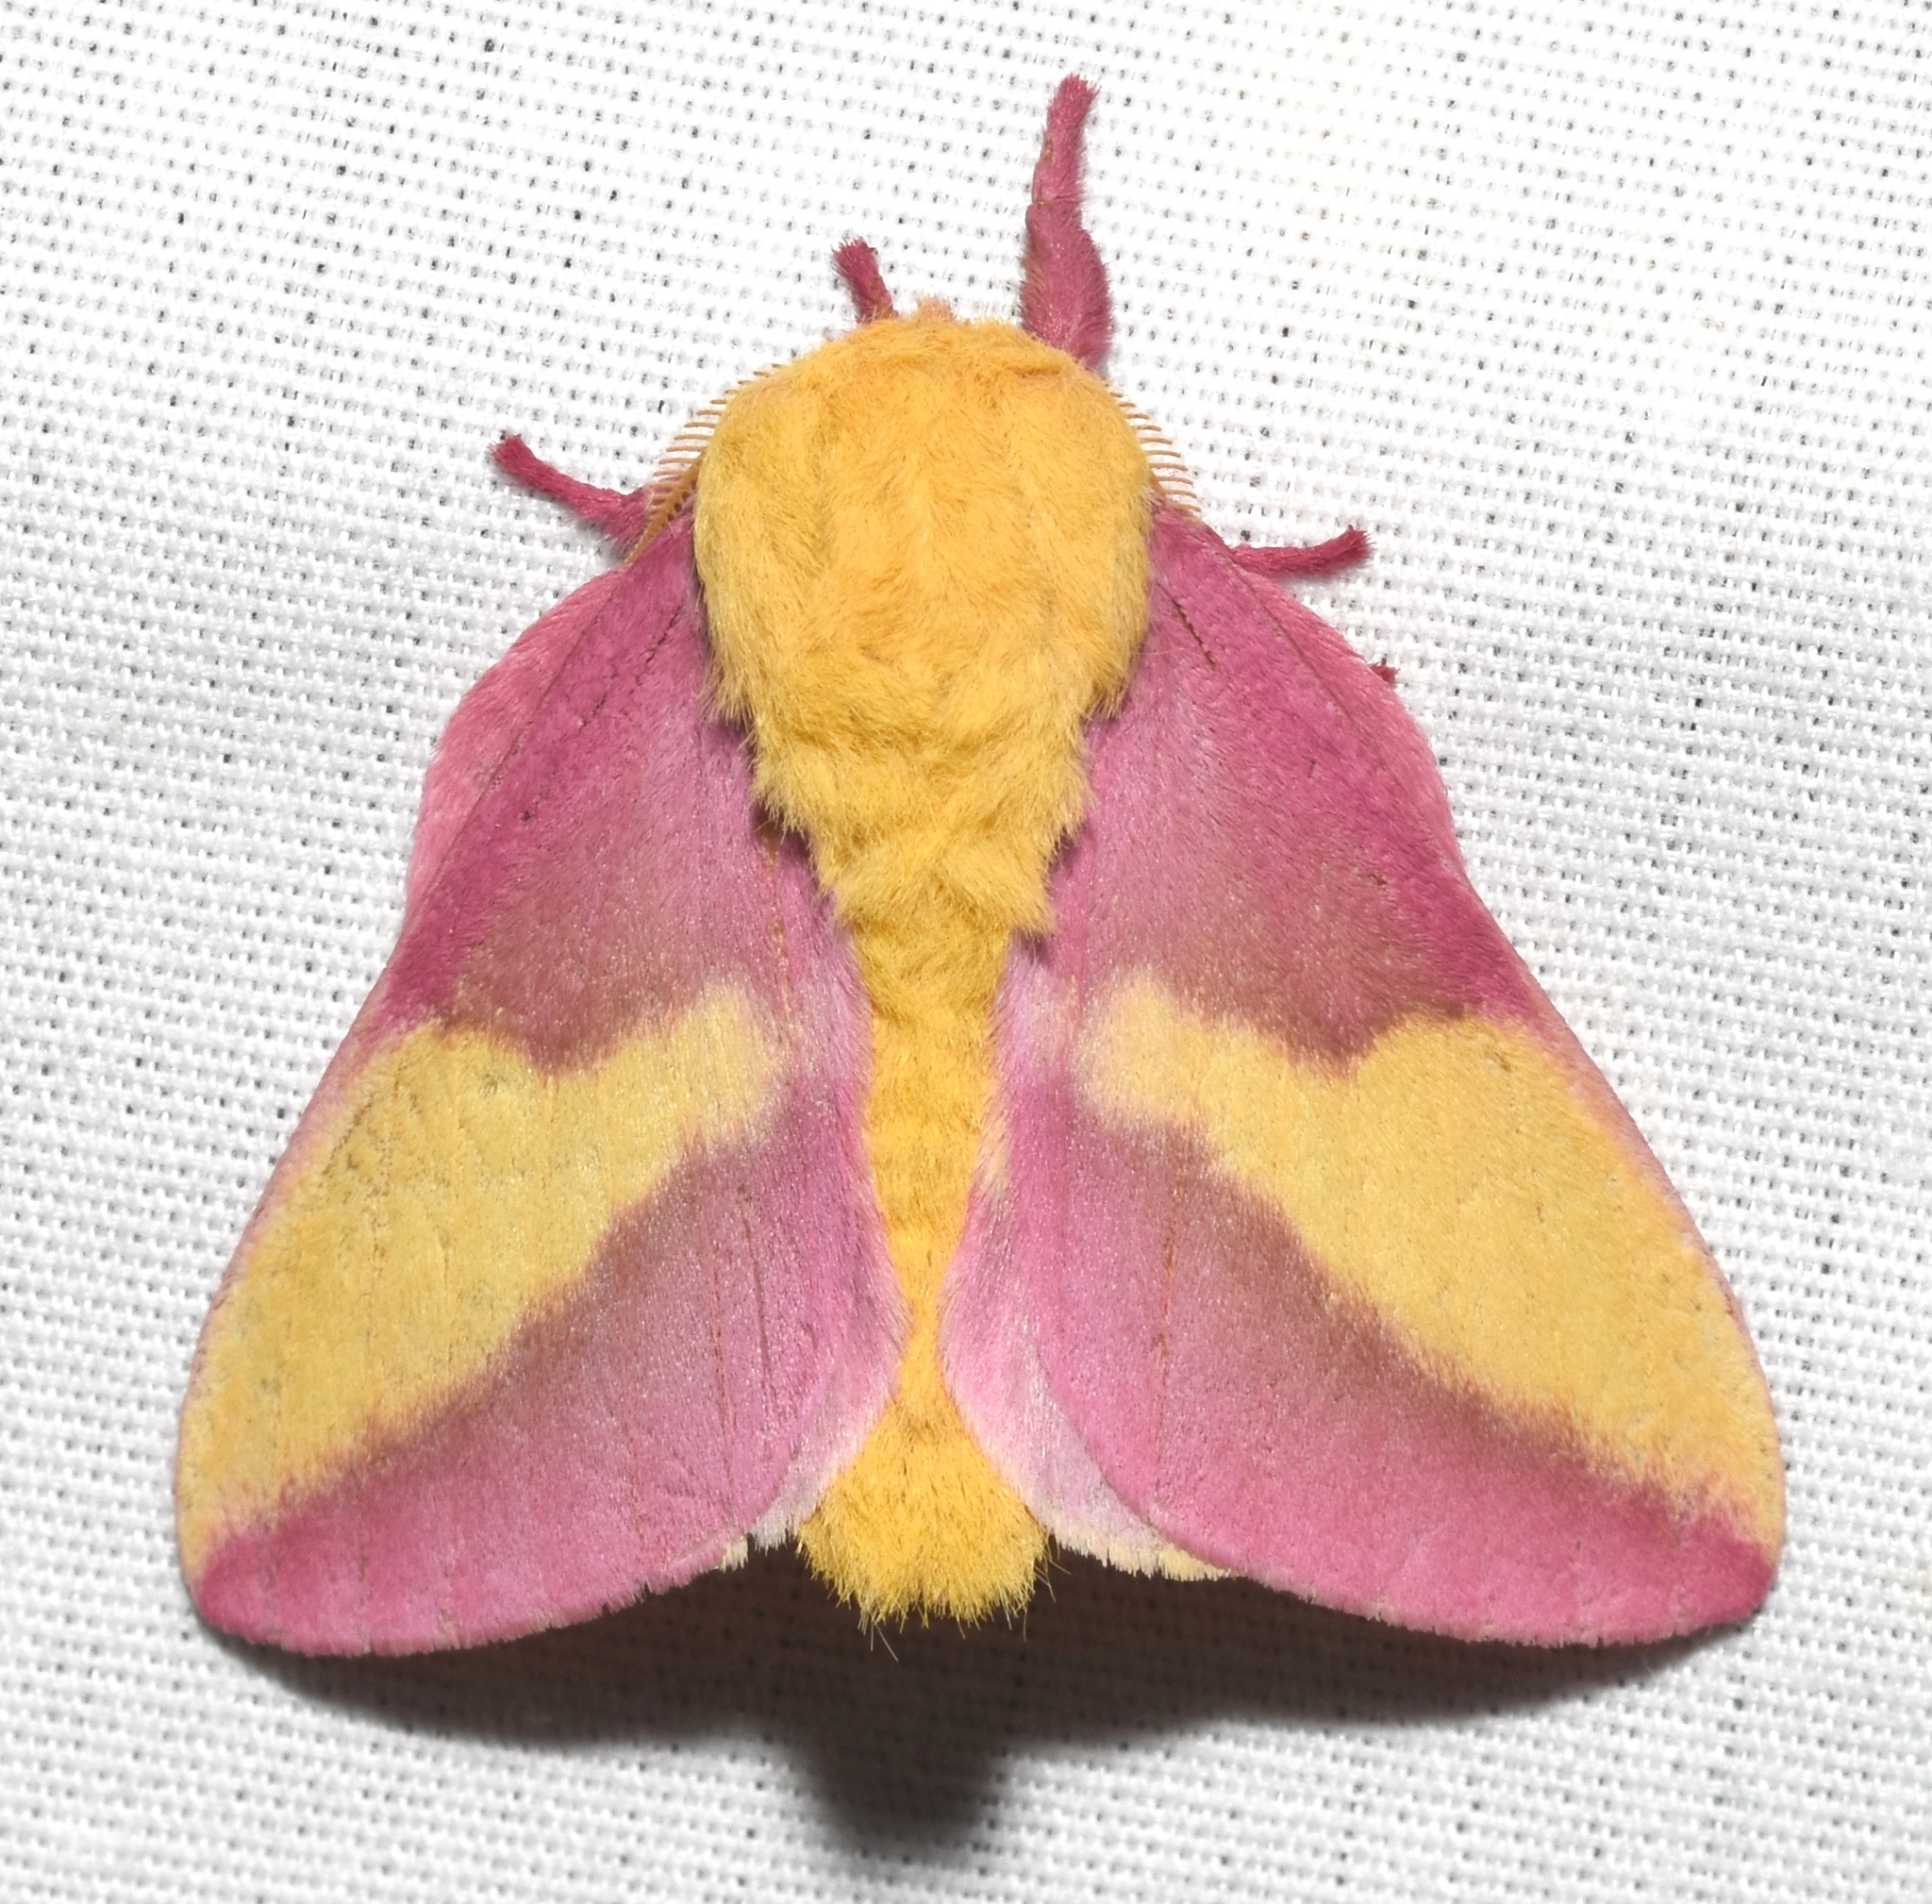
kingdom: Animalia
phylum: Arthropoda
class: Insecta
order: Lepidoptera
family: Saturniidae
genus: Dryocampa
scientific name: Dryocampa rubicunda
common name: Rosy maple moth
